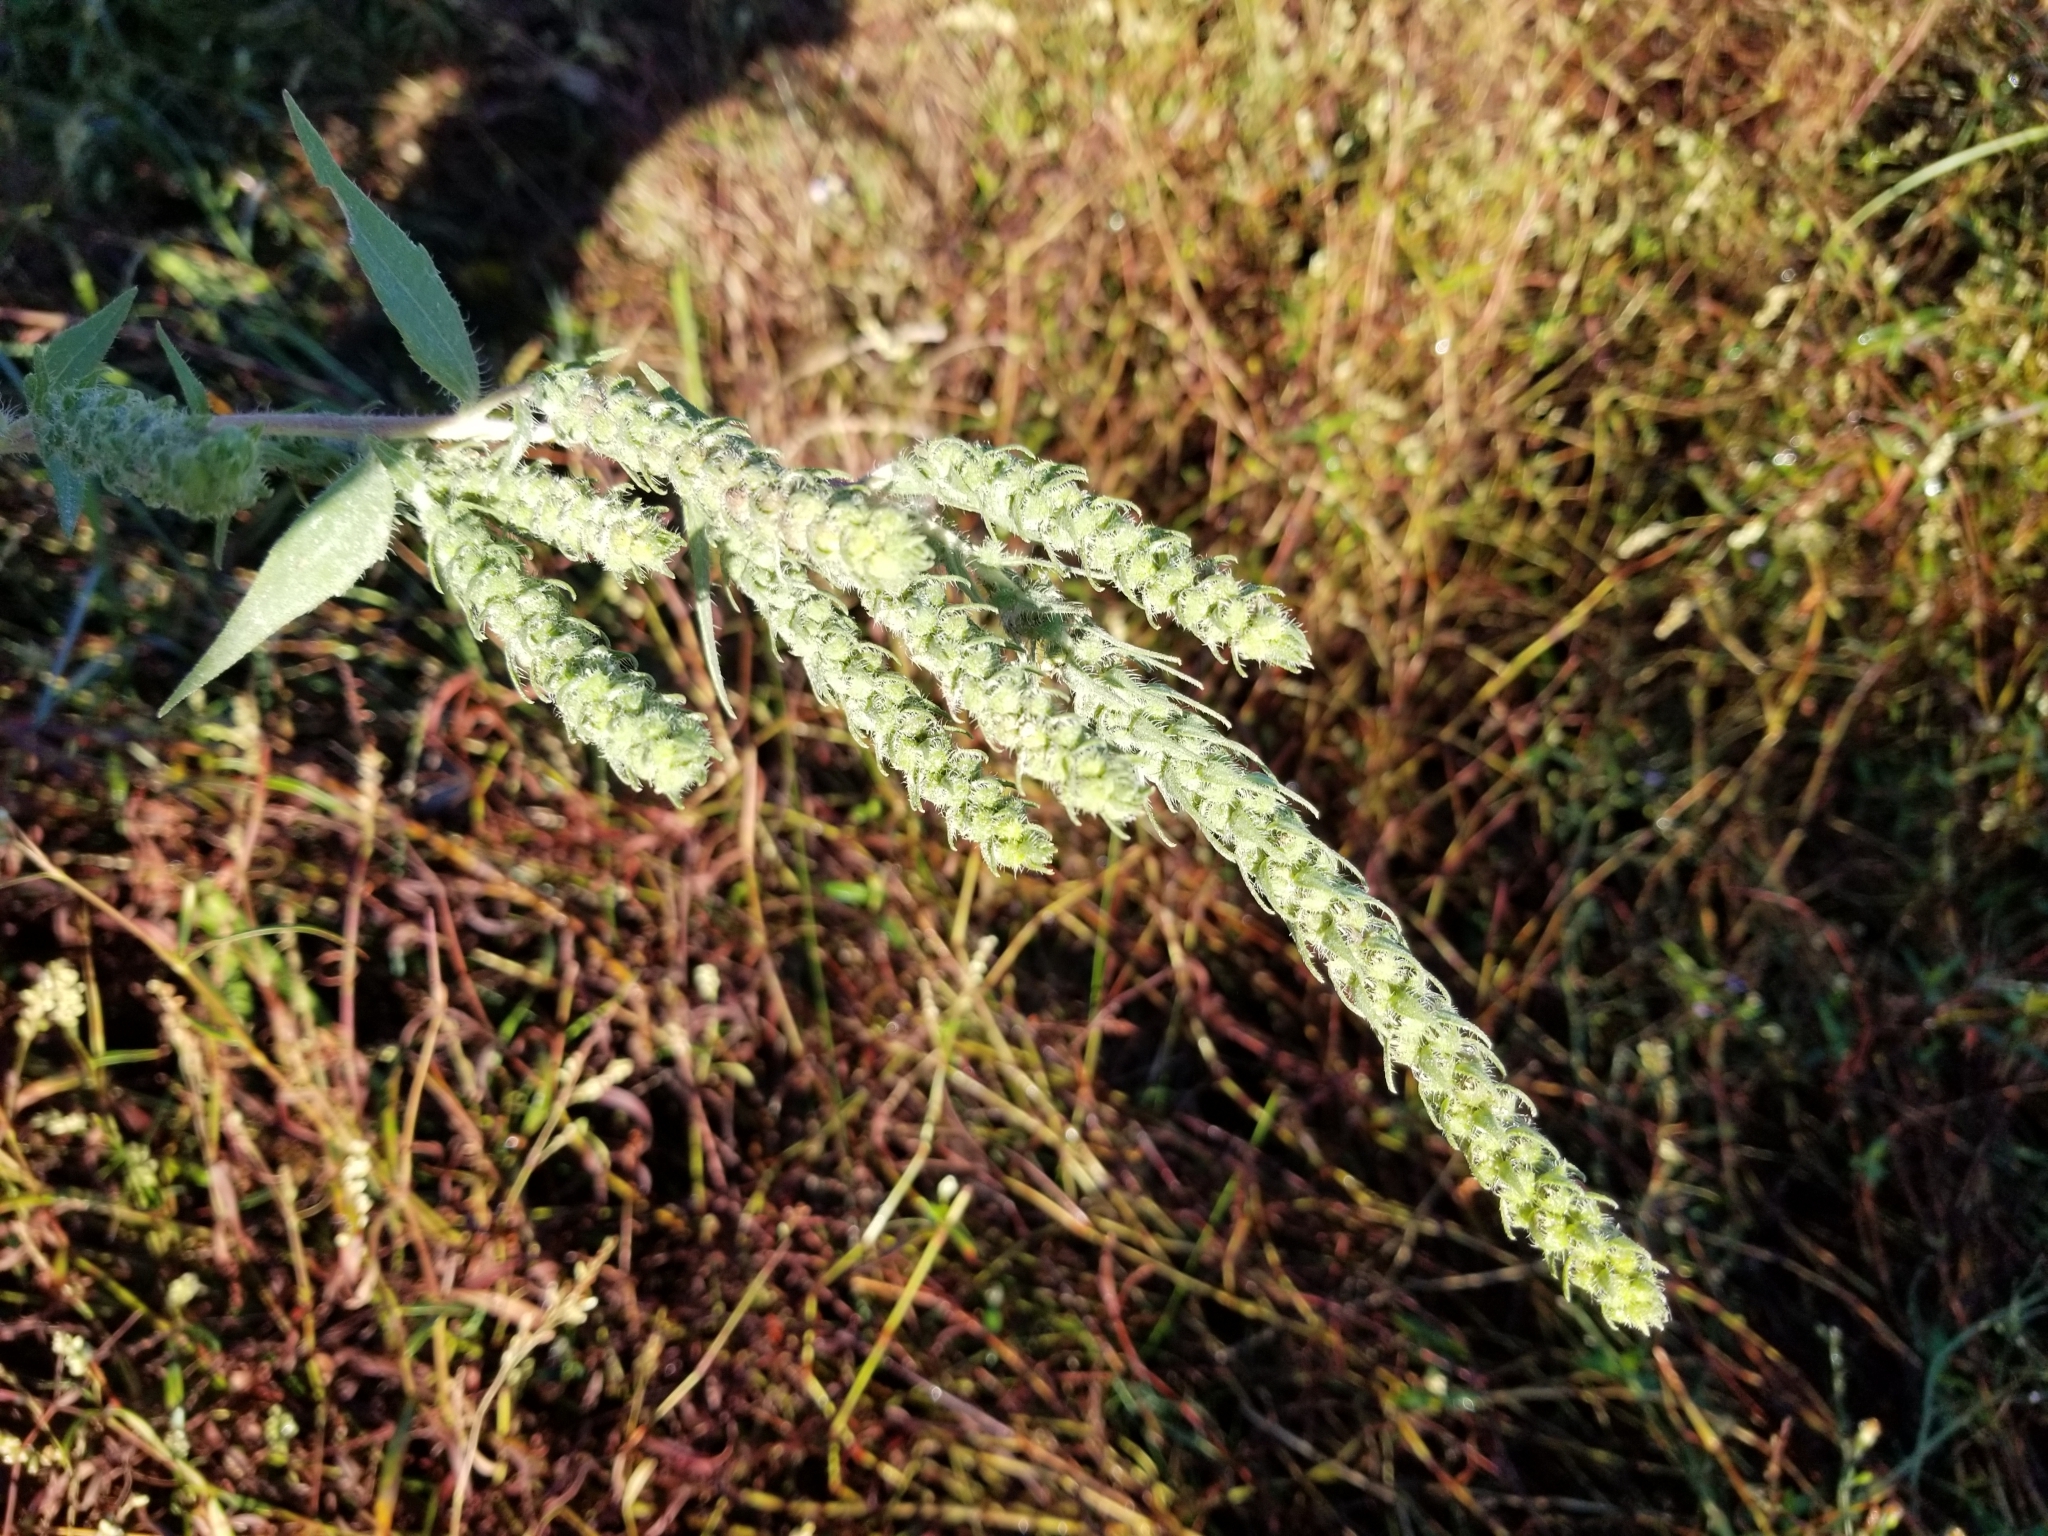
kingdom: Plantae
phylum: Tracheophyta
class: Magnoliopsida
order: Asterales
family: Asteraceae
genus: Iva
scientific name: Iva annua
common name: Marsh-elder
